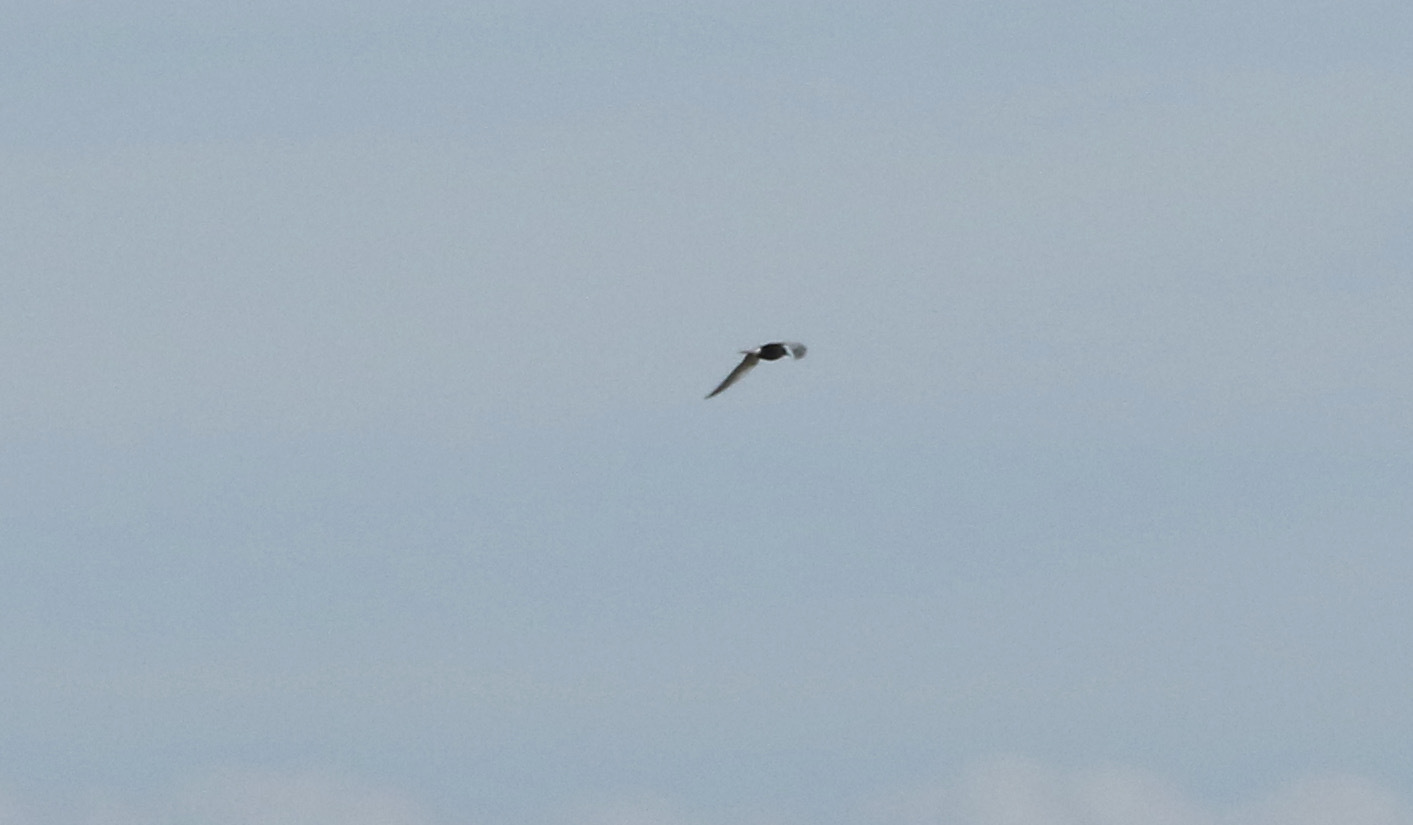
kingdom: Animalia
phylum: Chordata
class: Aves
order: Charadriiformes
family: Laridae
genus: Chlidonias
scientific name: Chlidonias niger
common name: Black tern
